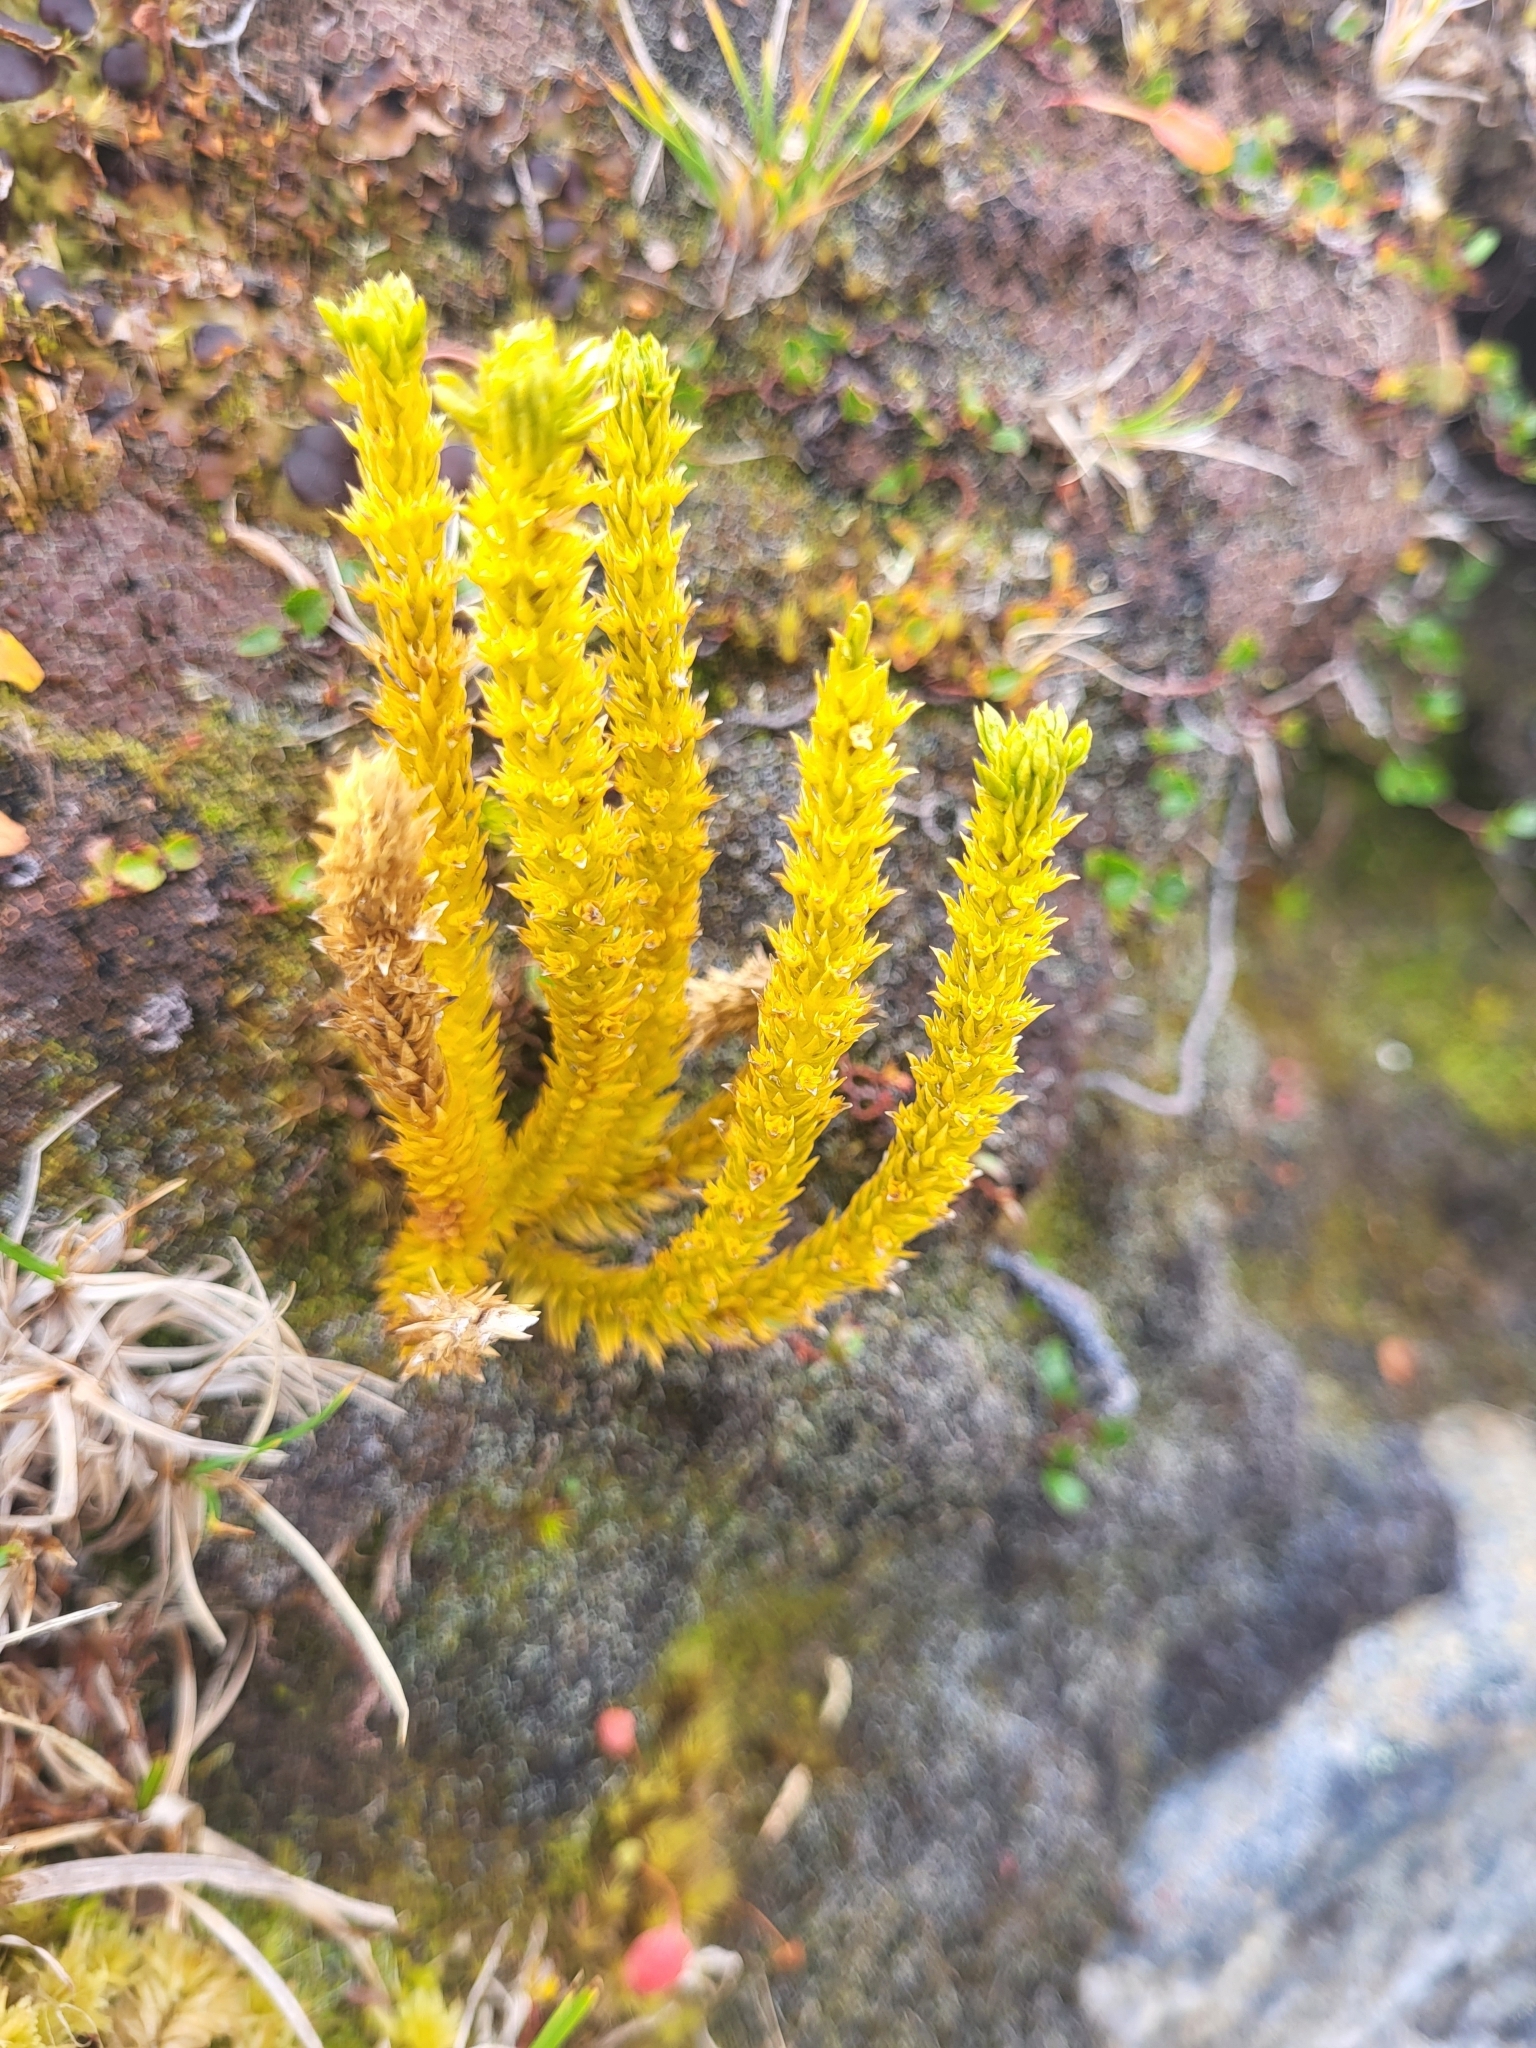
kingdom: Plantae
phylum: Tracheophyta
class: Lycopodiopsida
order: Lycopodiales
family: Lycopodiaceae
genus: Huperzia
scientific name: Huperzia selago
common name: Northern firmoss
